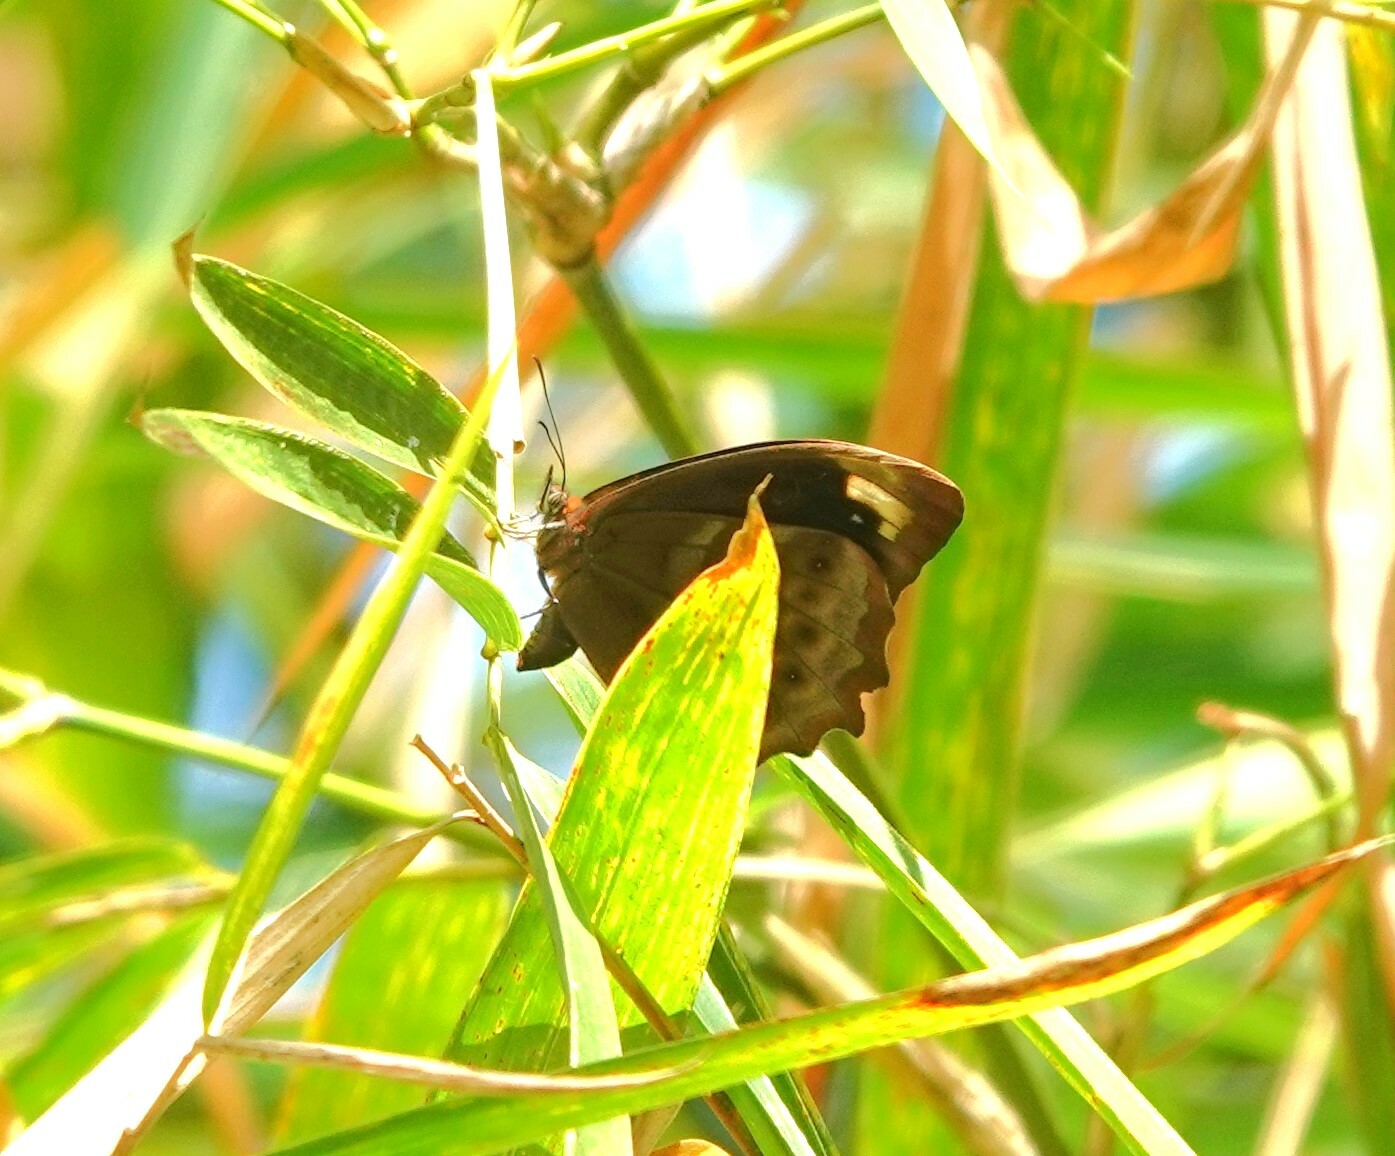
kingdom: Animalia
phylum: Arthropoda
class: Insecta
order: Lepidoptera
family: Nymphalidae
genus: Pronophila
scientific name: Pronophila juliani
